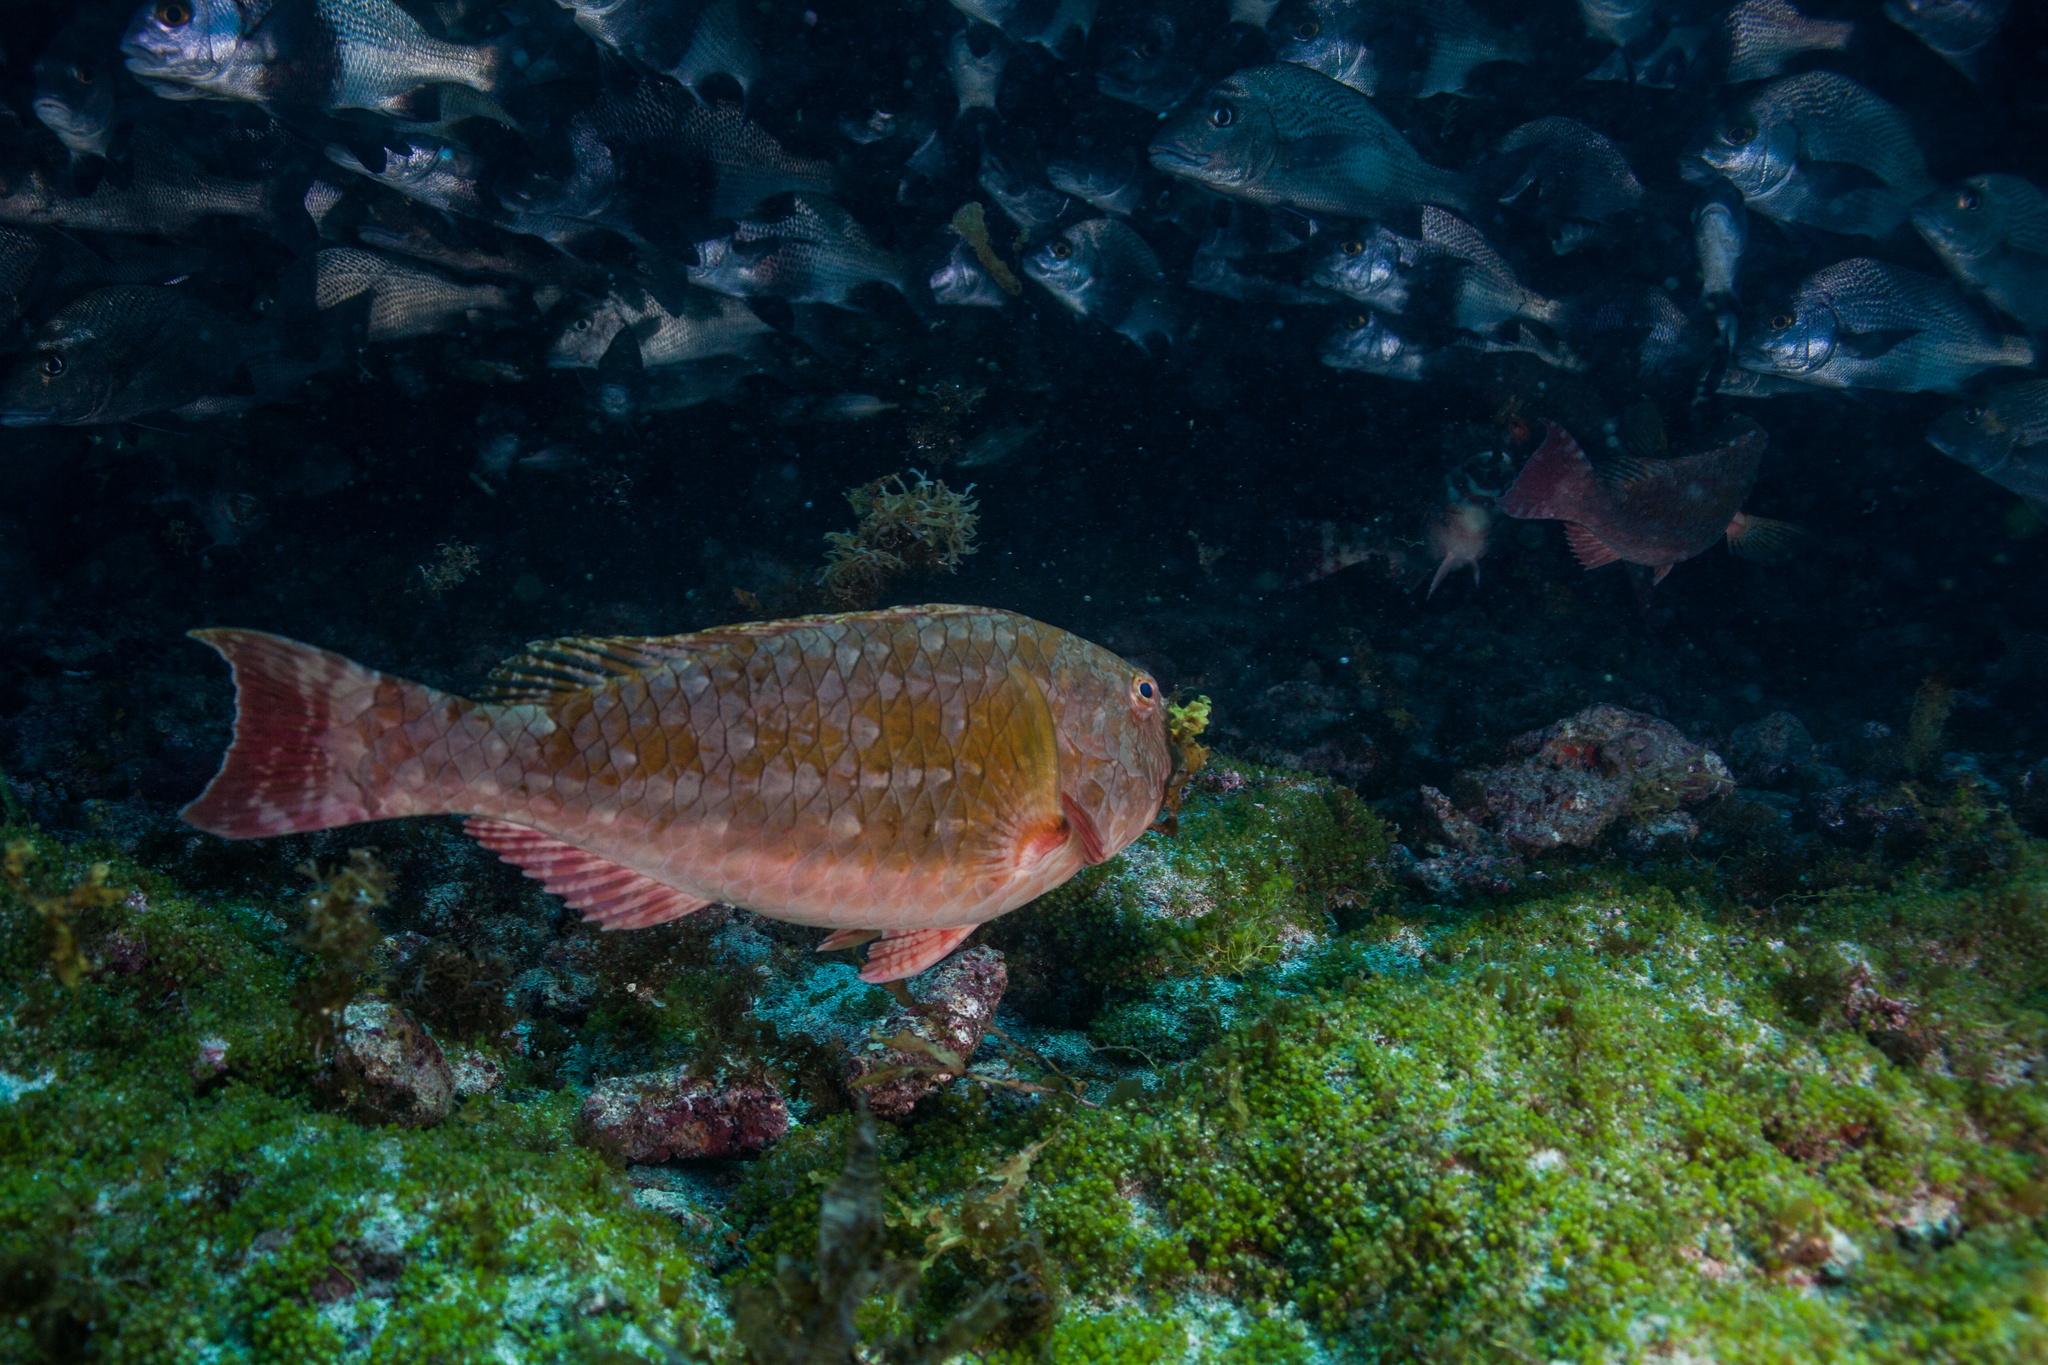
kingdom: Animalia
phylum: Chordata
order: Perciformes
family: Scaridae
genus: Sparisoma
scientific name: Sparisoma axillare
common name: Gray parrotfish
